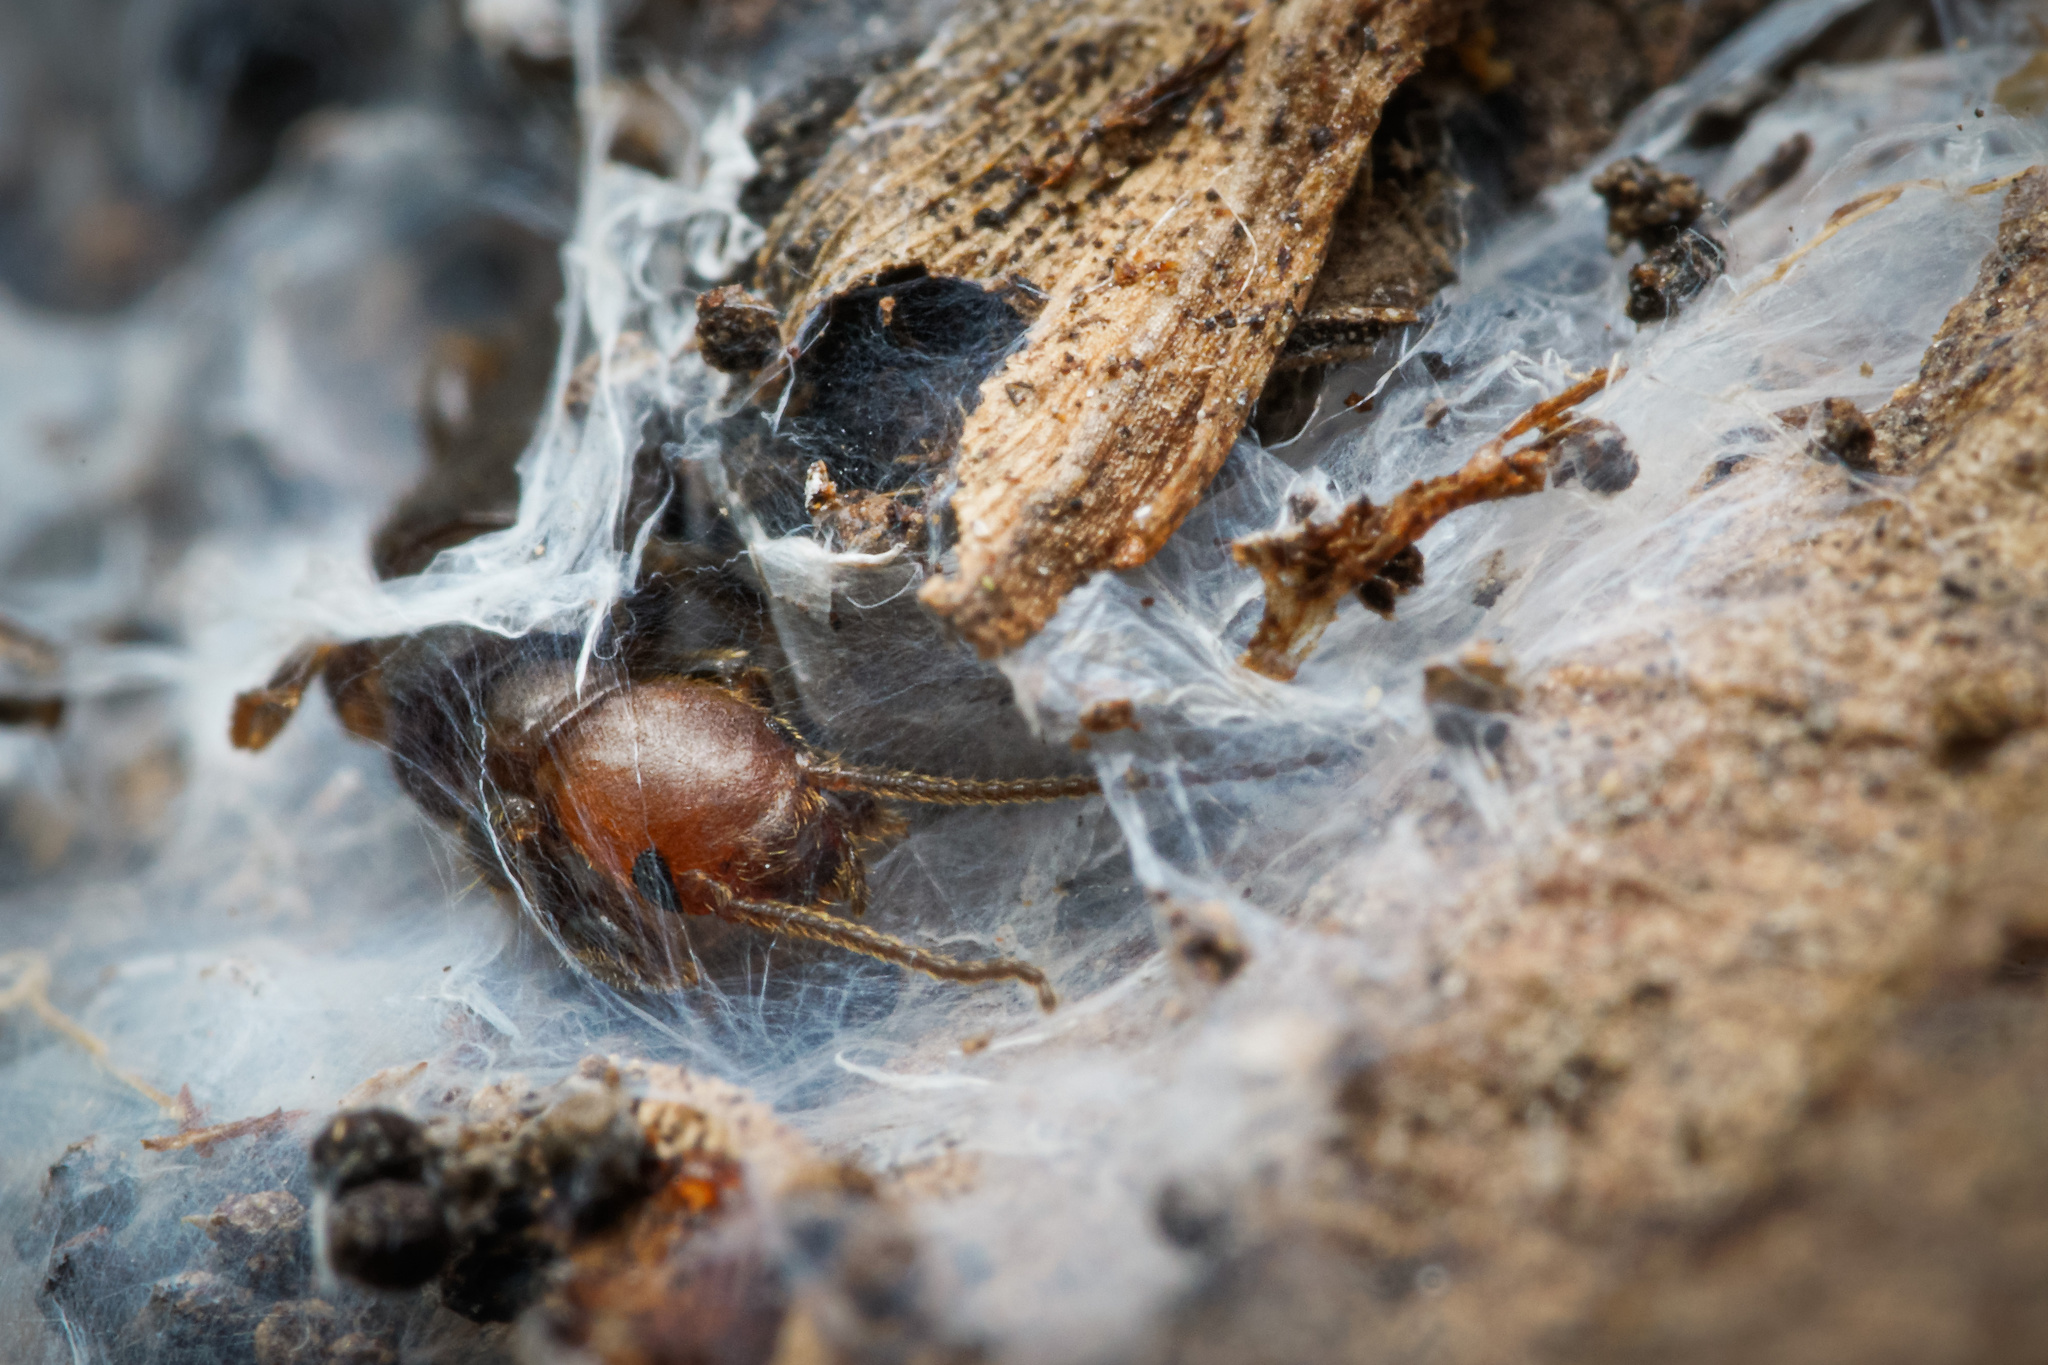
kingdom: Animalia
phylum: Arthropoda
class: Insecta
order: Embioptera
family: Oligotomidae
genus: Oligotoma
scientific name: Oligotoma humbertiana
